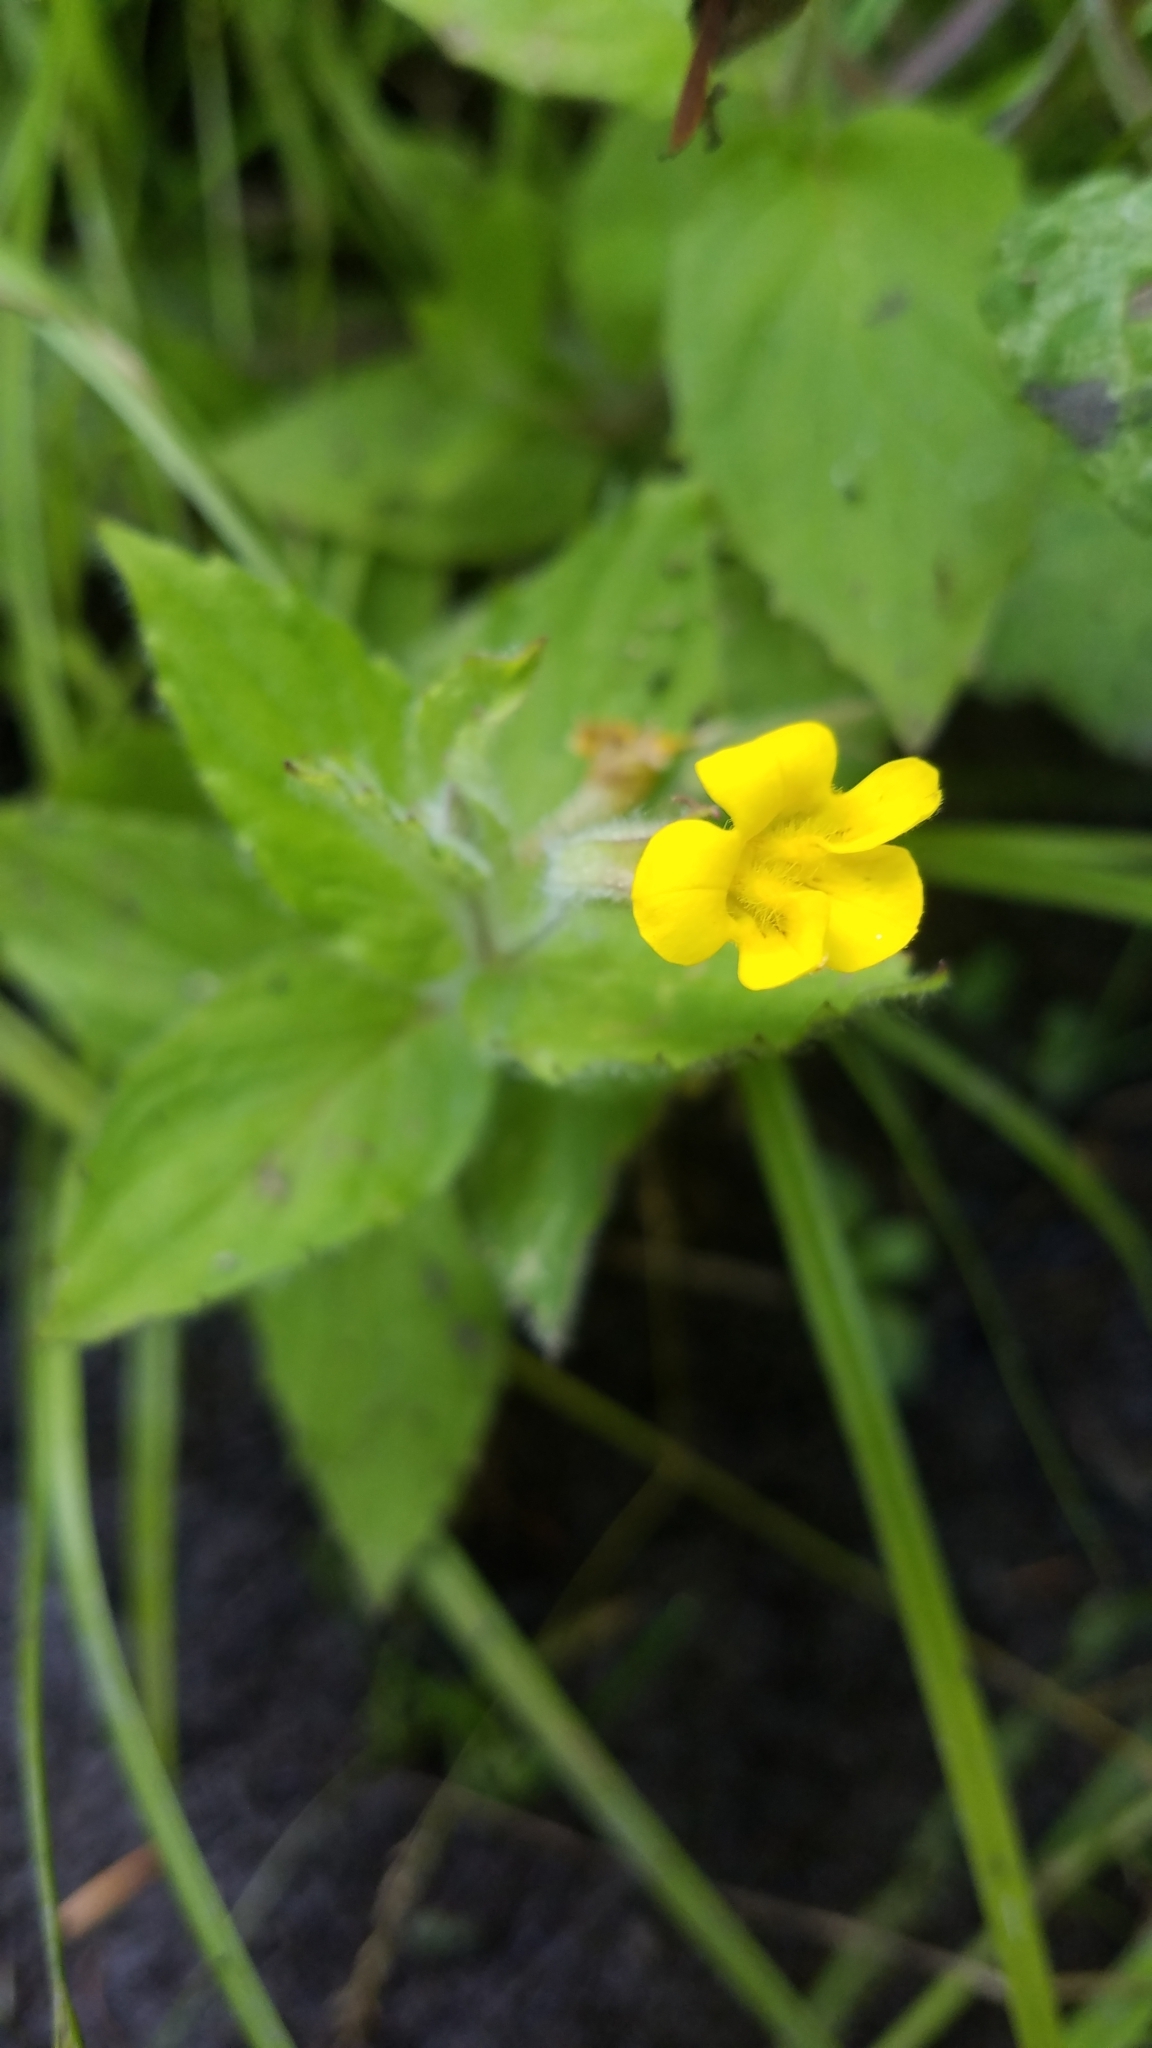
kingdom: Plantae
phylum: Tracheophyta
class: Magnoliopsida
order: Lamiales
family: Phrymaceae
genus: Erythranthe
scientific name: Erythranthe ptilota
